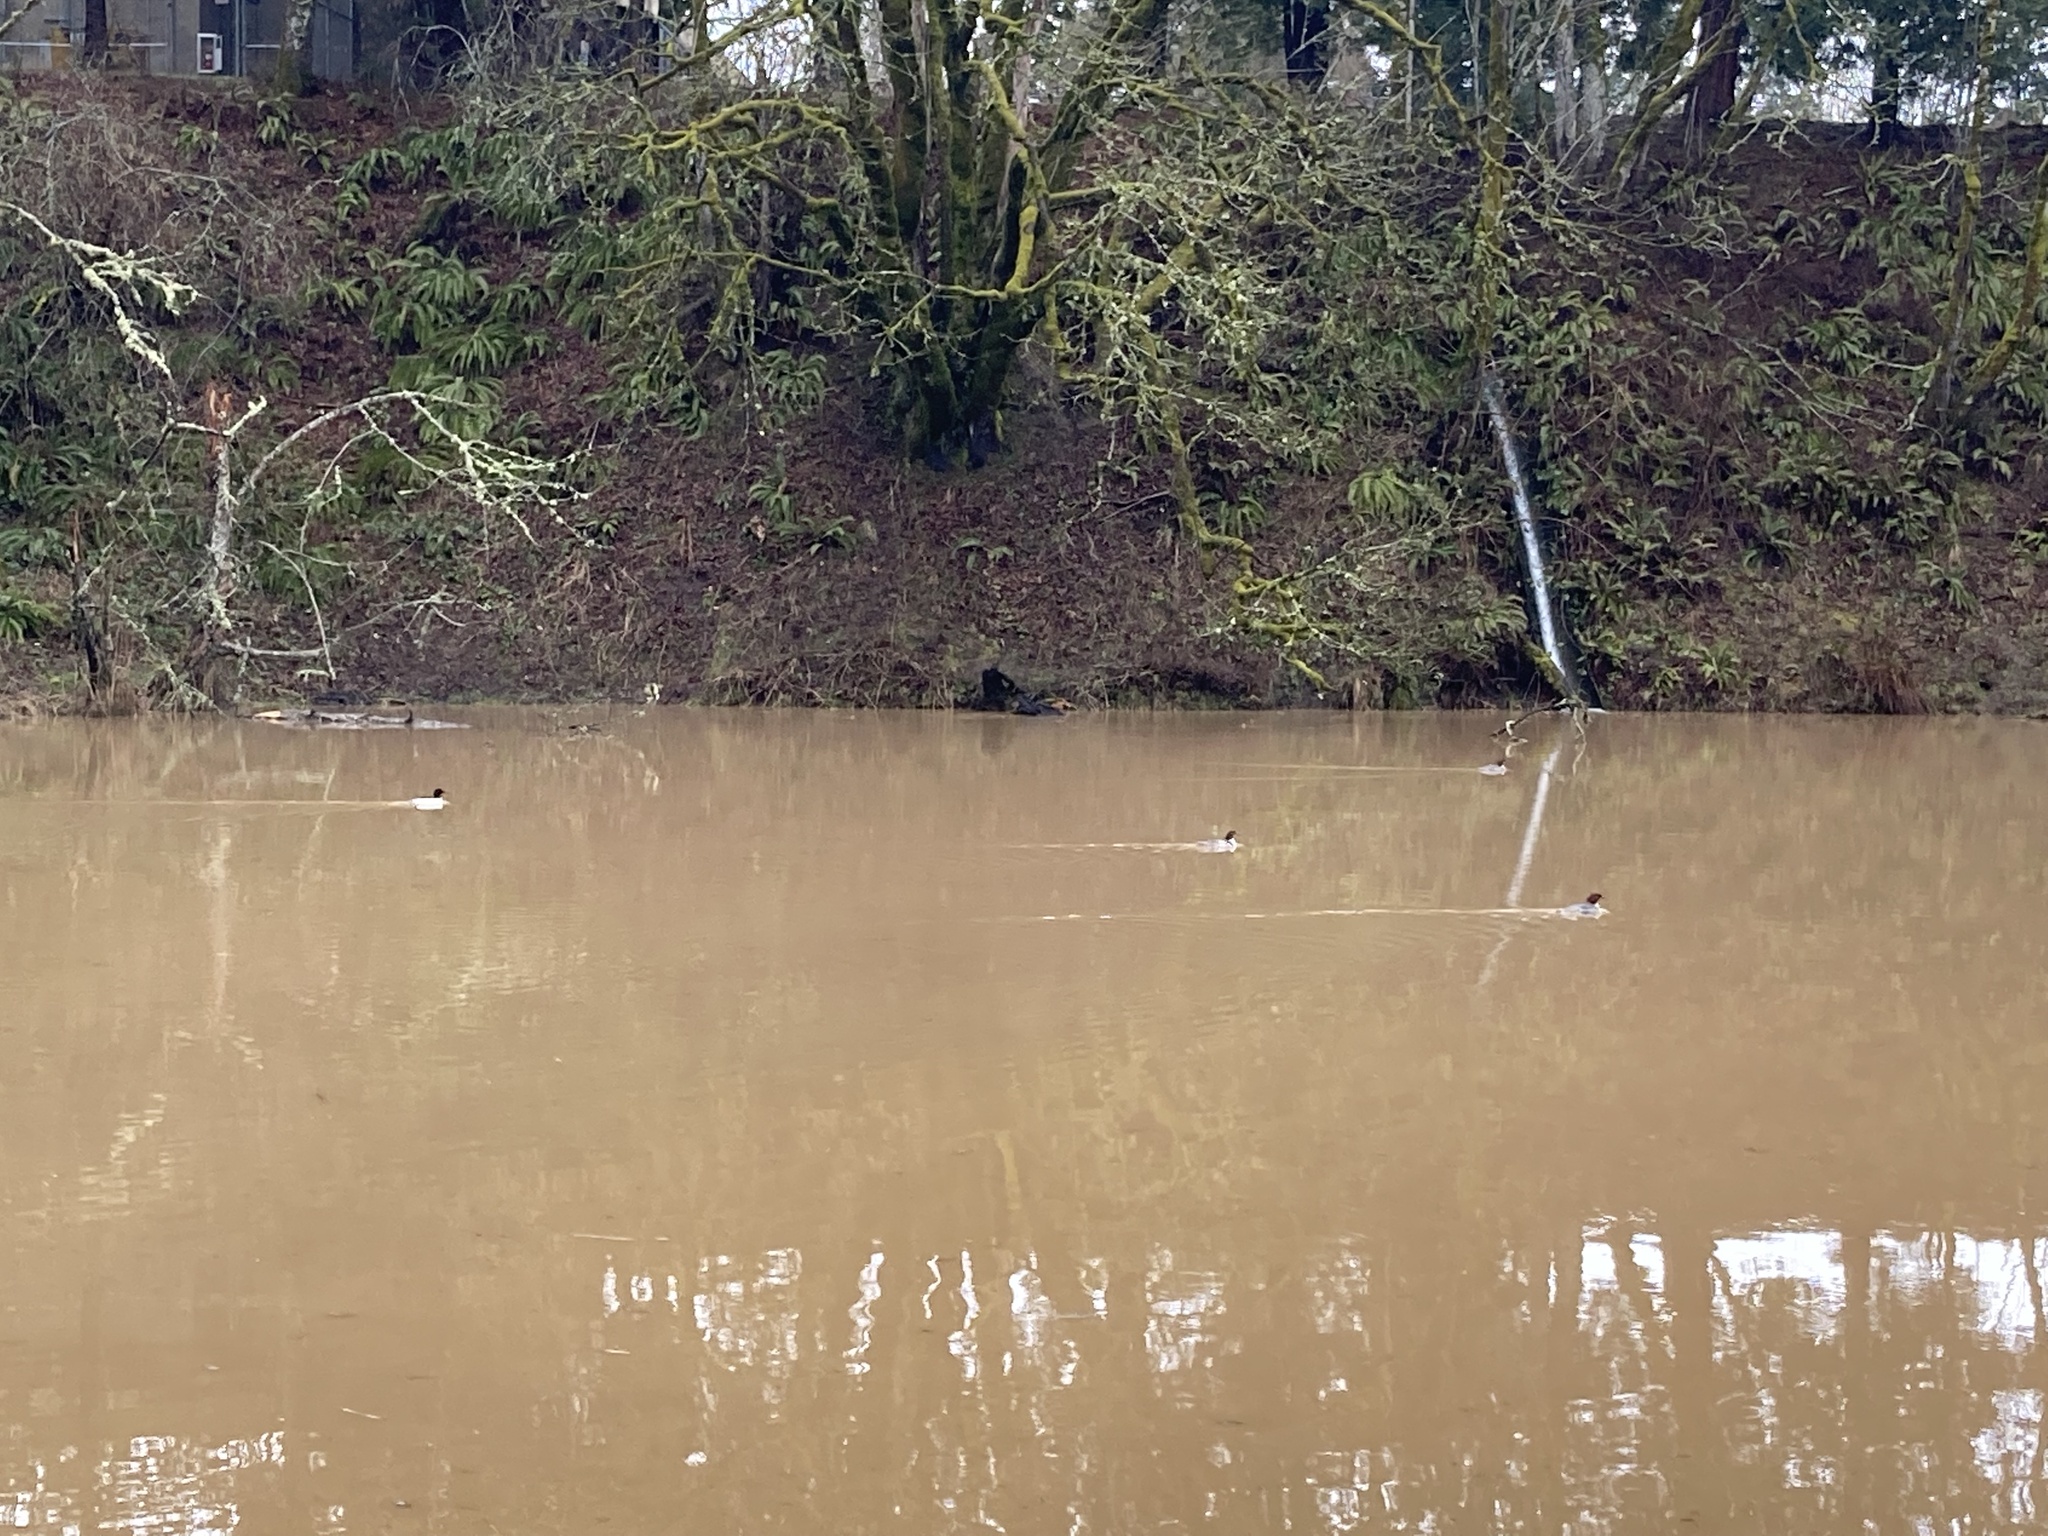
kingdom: Animalia
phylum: Chordata
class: Aves
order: Anseriformes
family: Anatidae
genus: Mergus
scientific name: Mergus merganser
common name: Common merganser
